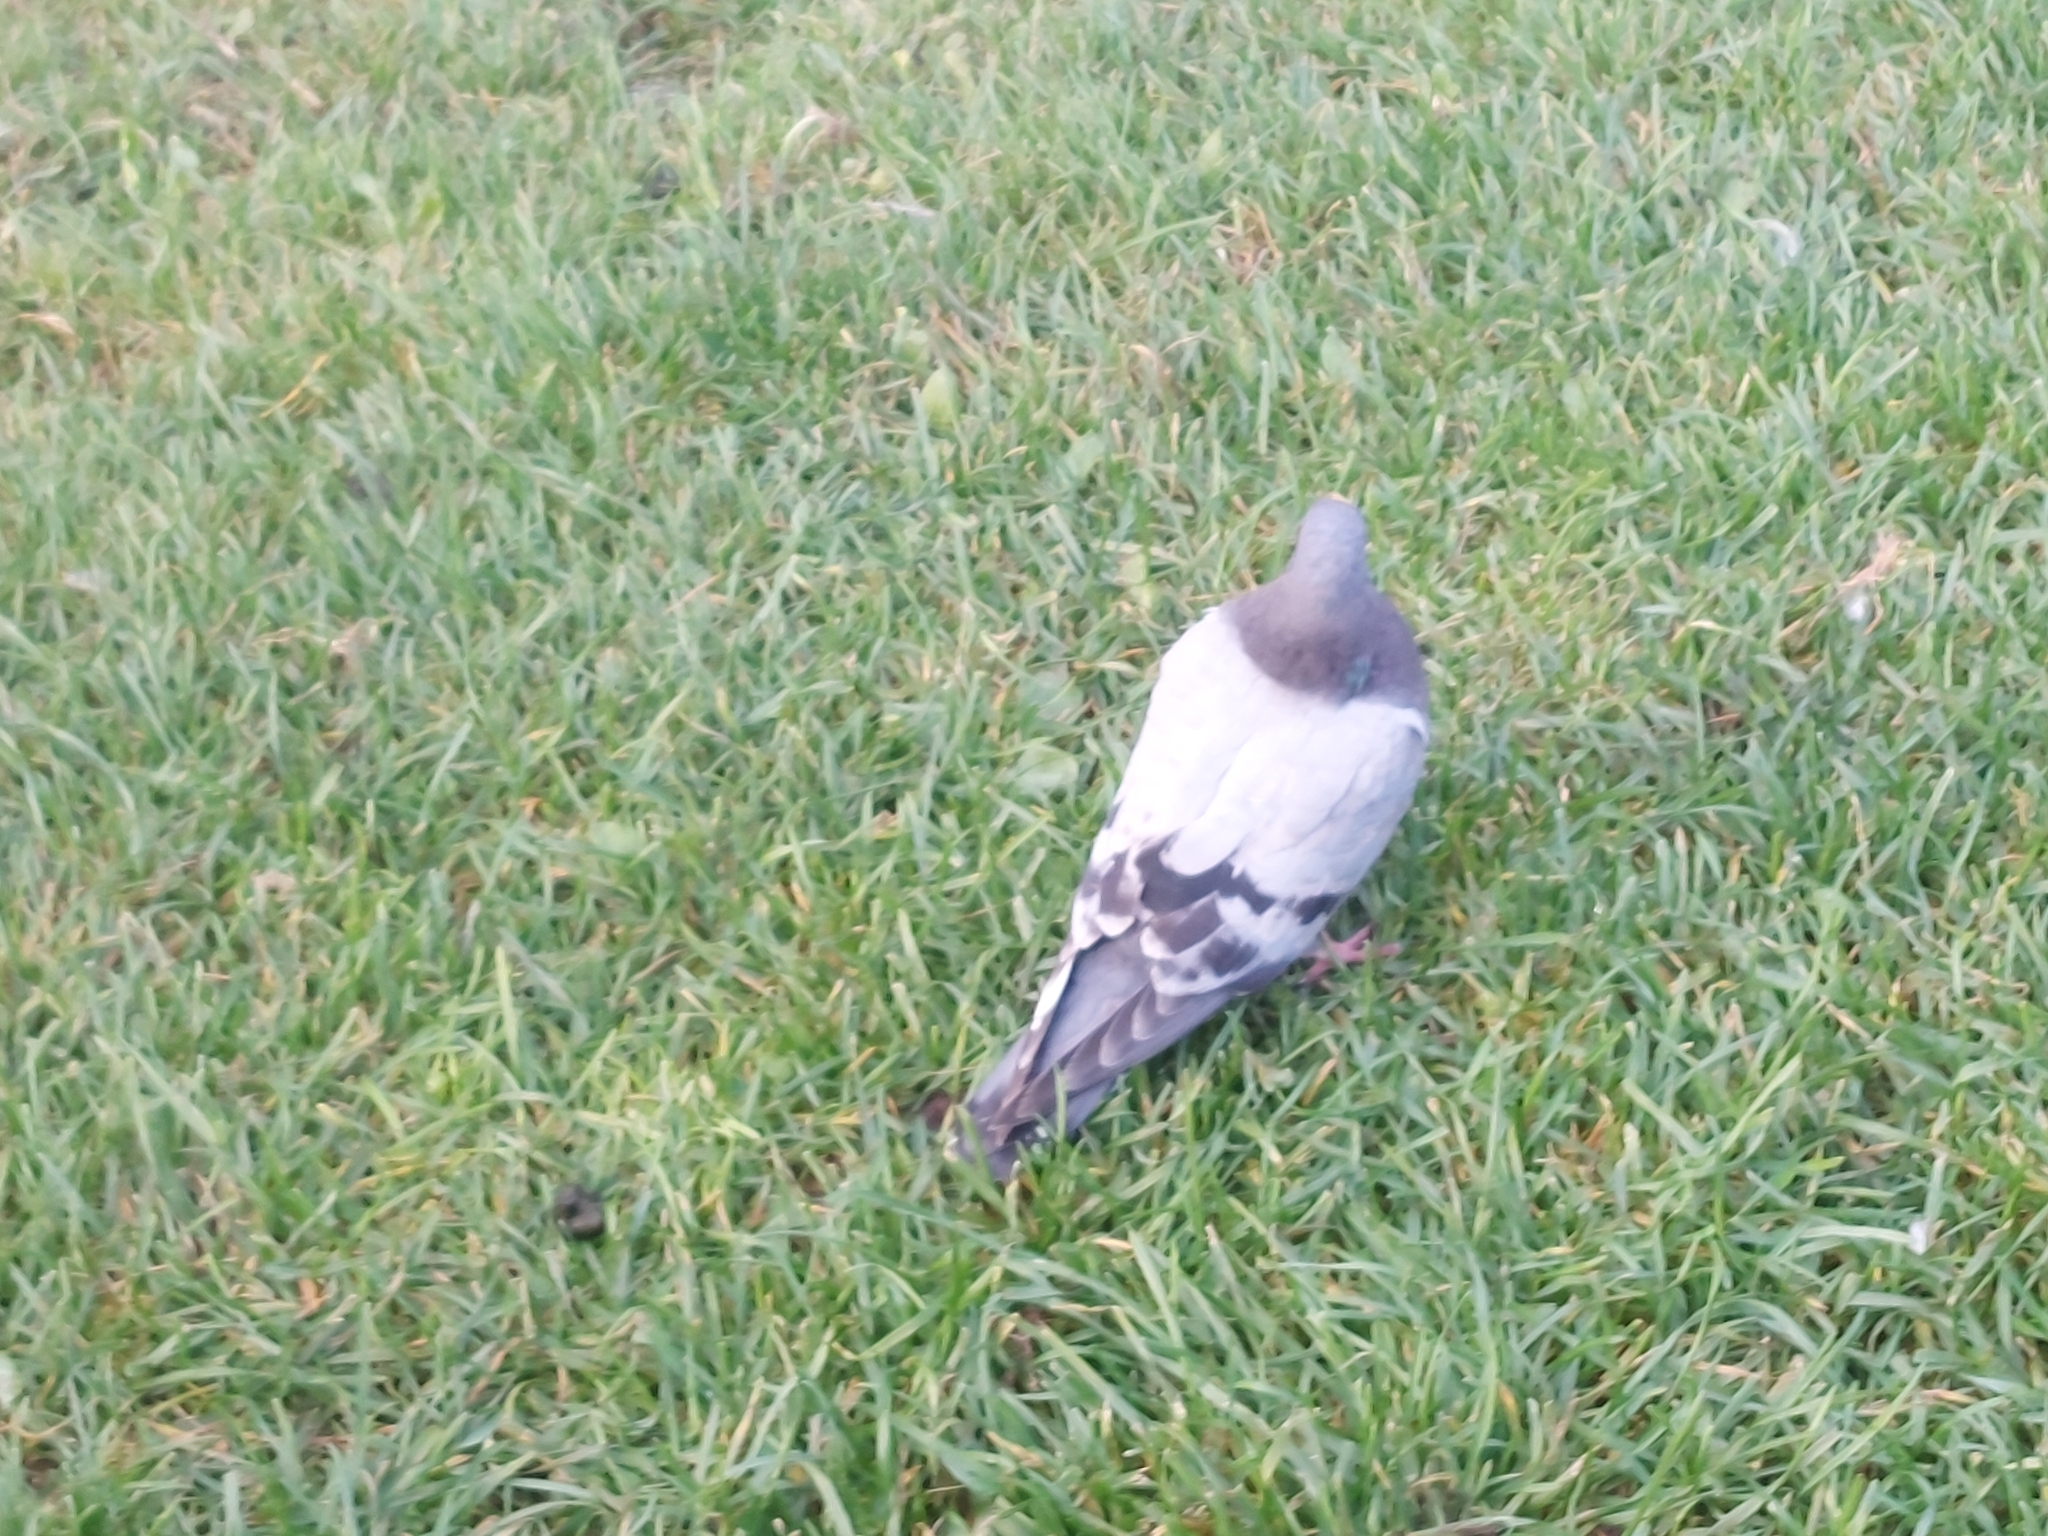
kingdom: Animalia
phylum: Chordata
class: Aves
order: Columbiformes
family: Columbidae
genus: Columba
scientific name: Columba livia
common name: Rock pigeon
